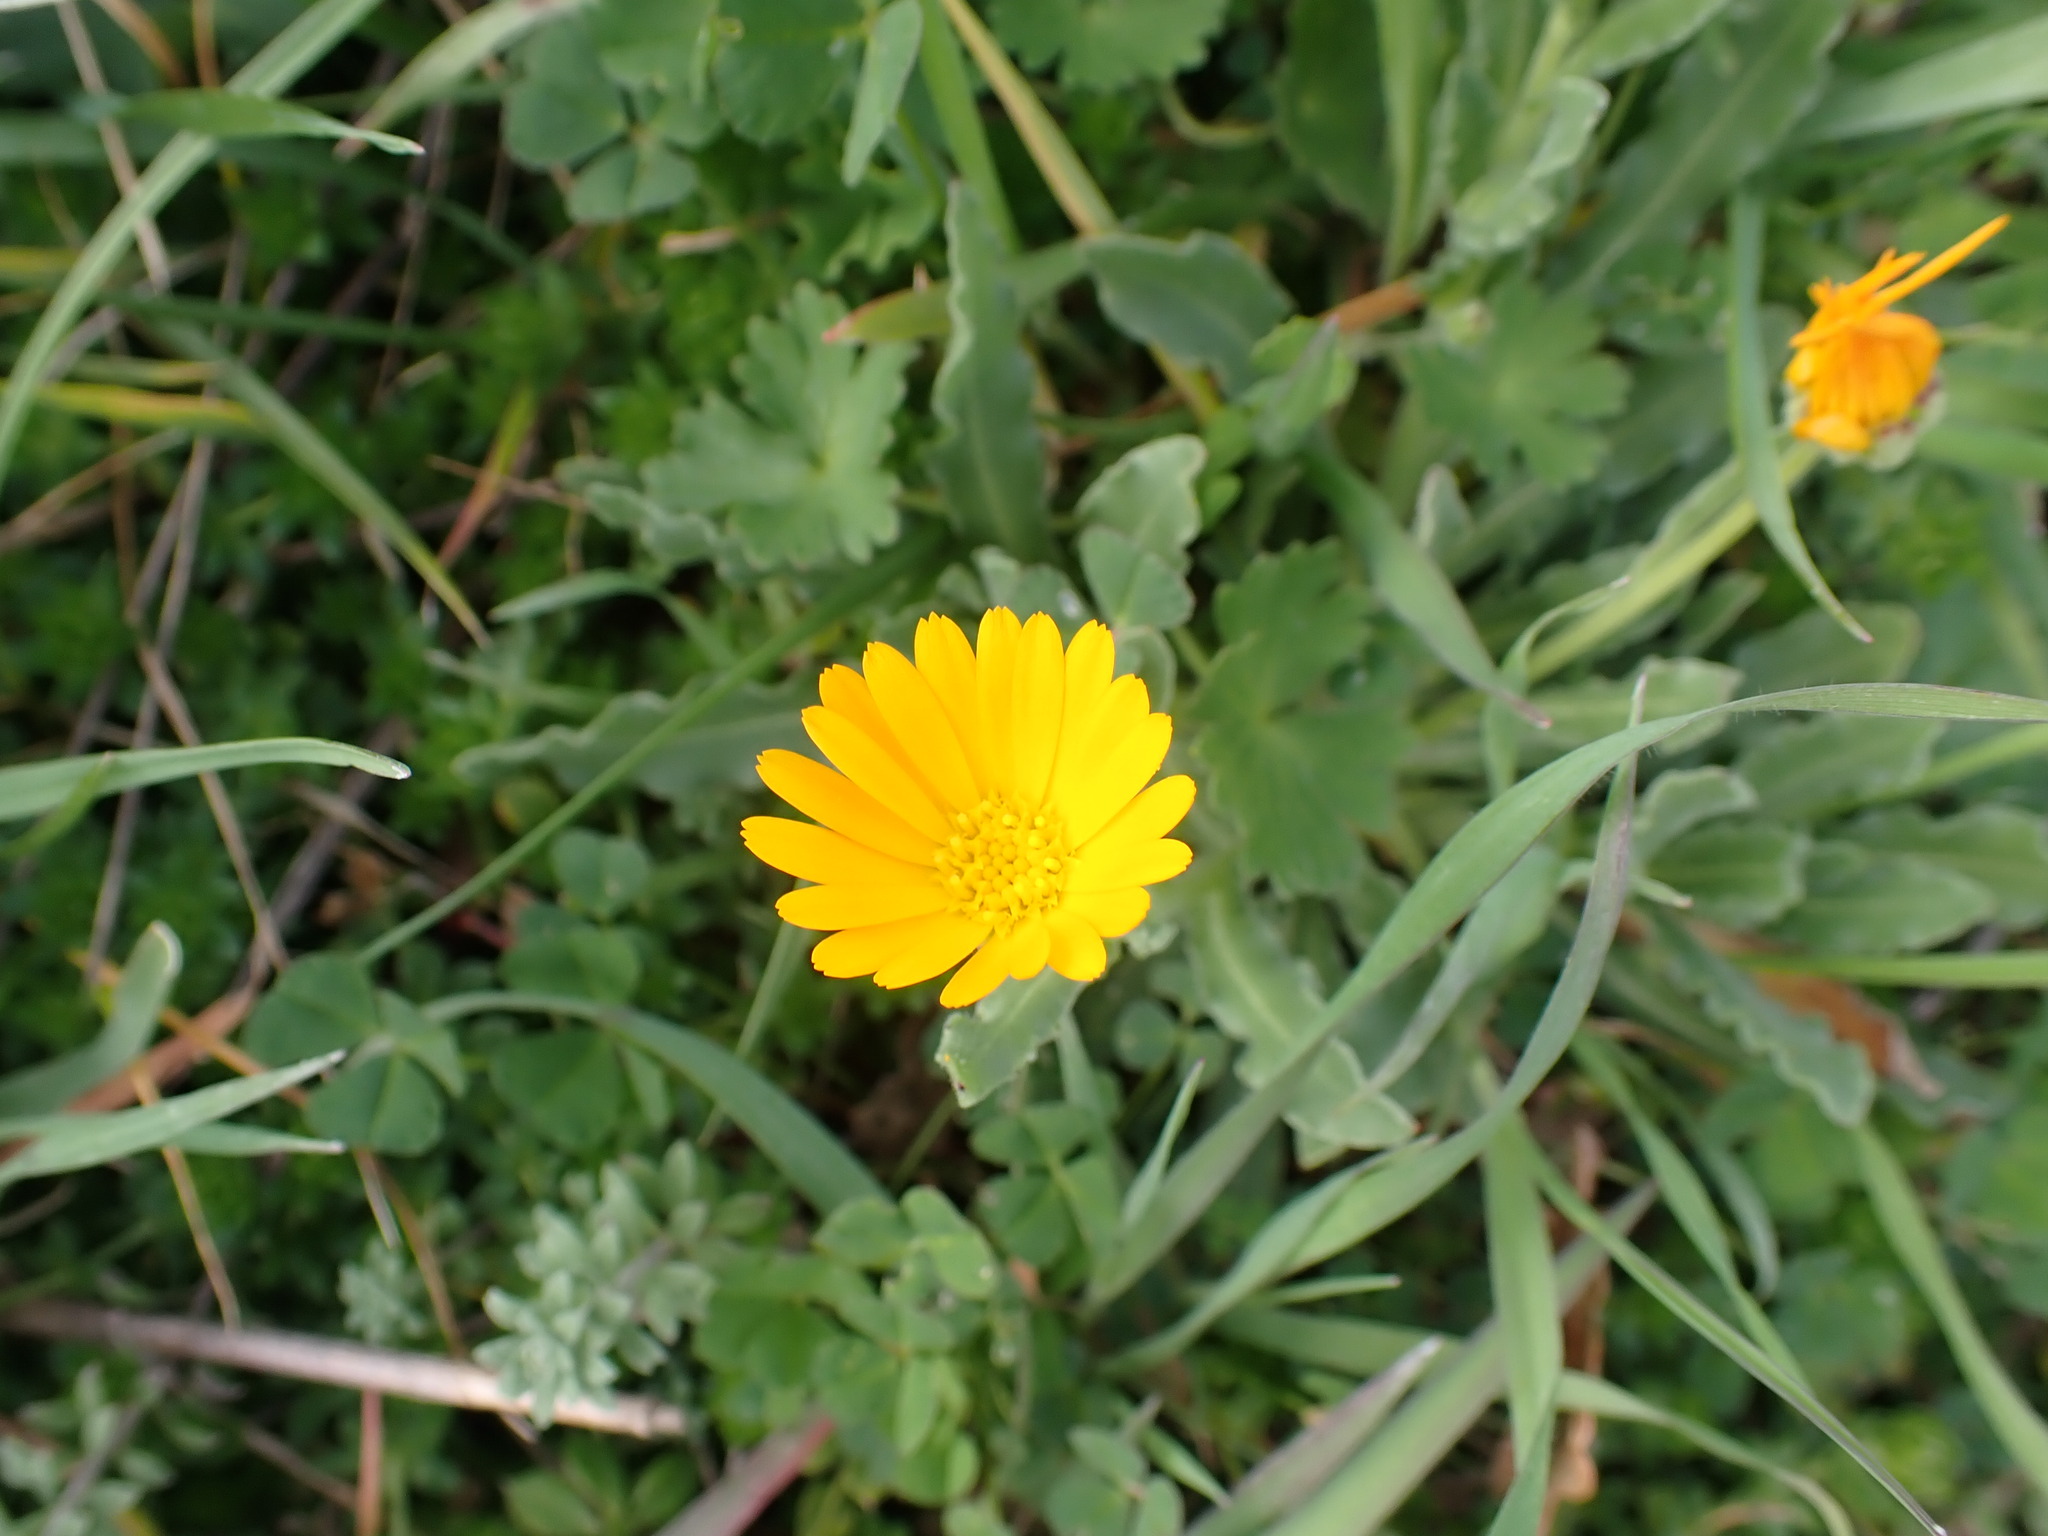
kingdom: Plantae
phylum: Tracheophyta
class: Magnoliopsida
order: Asterales
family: Asteraceae
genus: Calendula
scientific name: Calendula arvensis
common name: Field marigold
